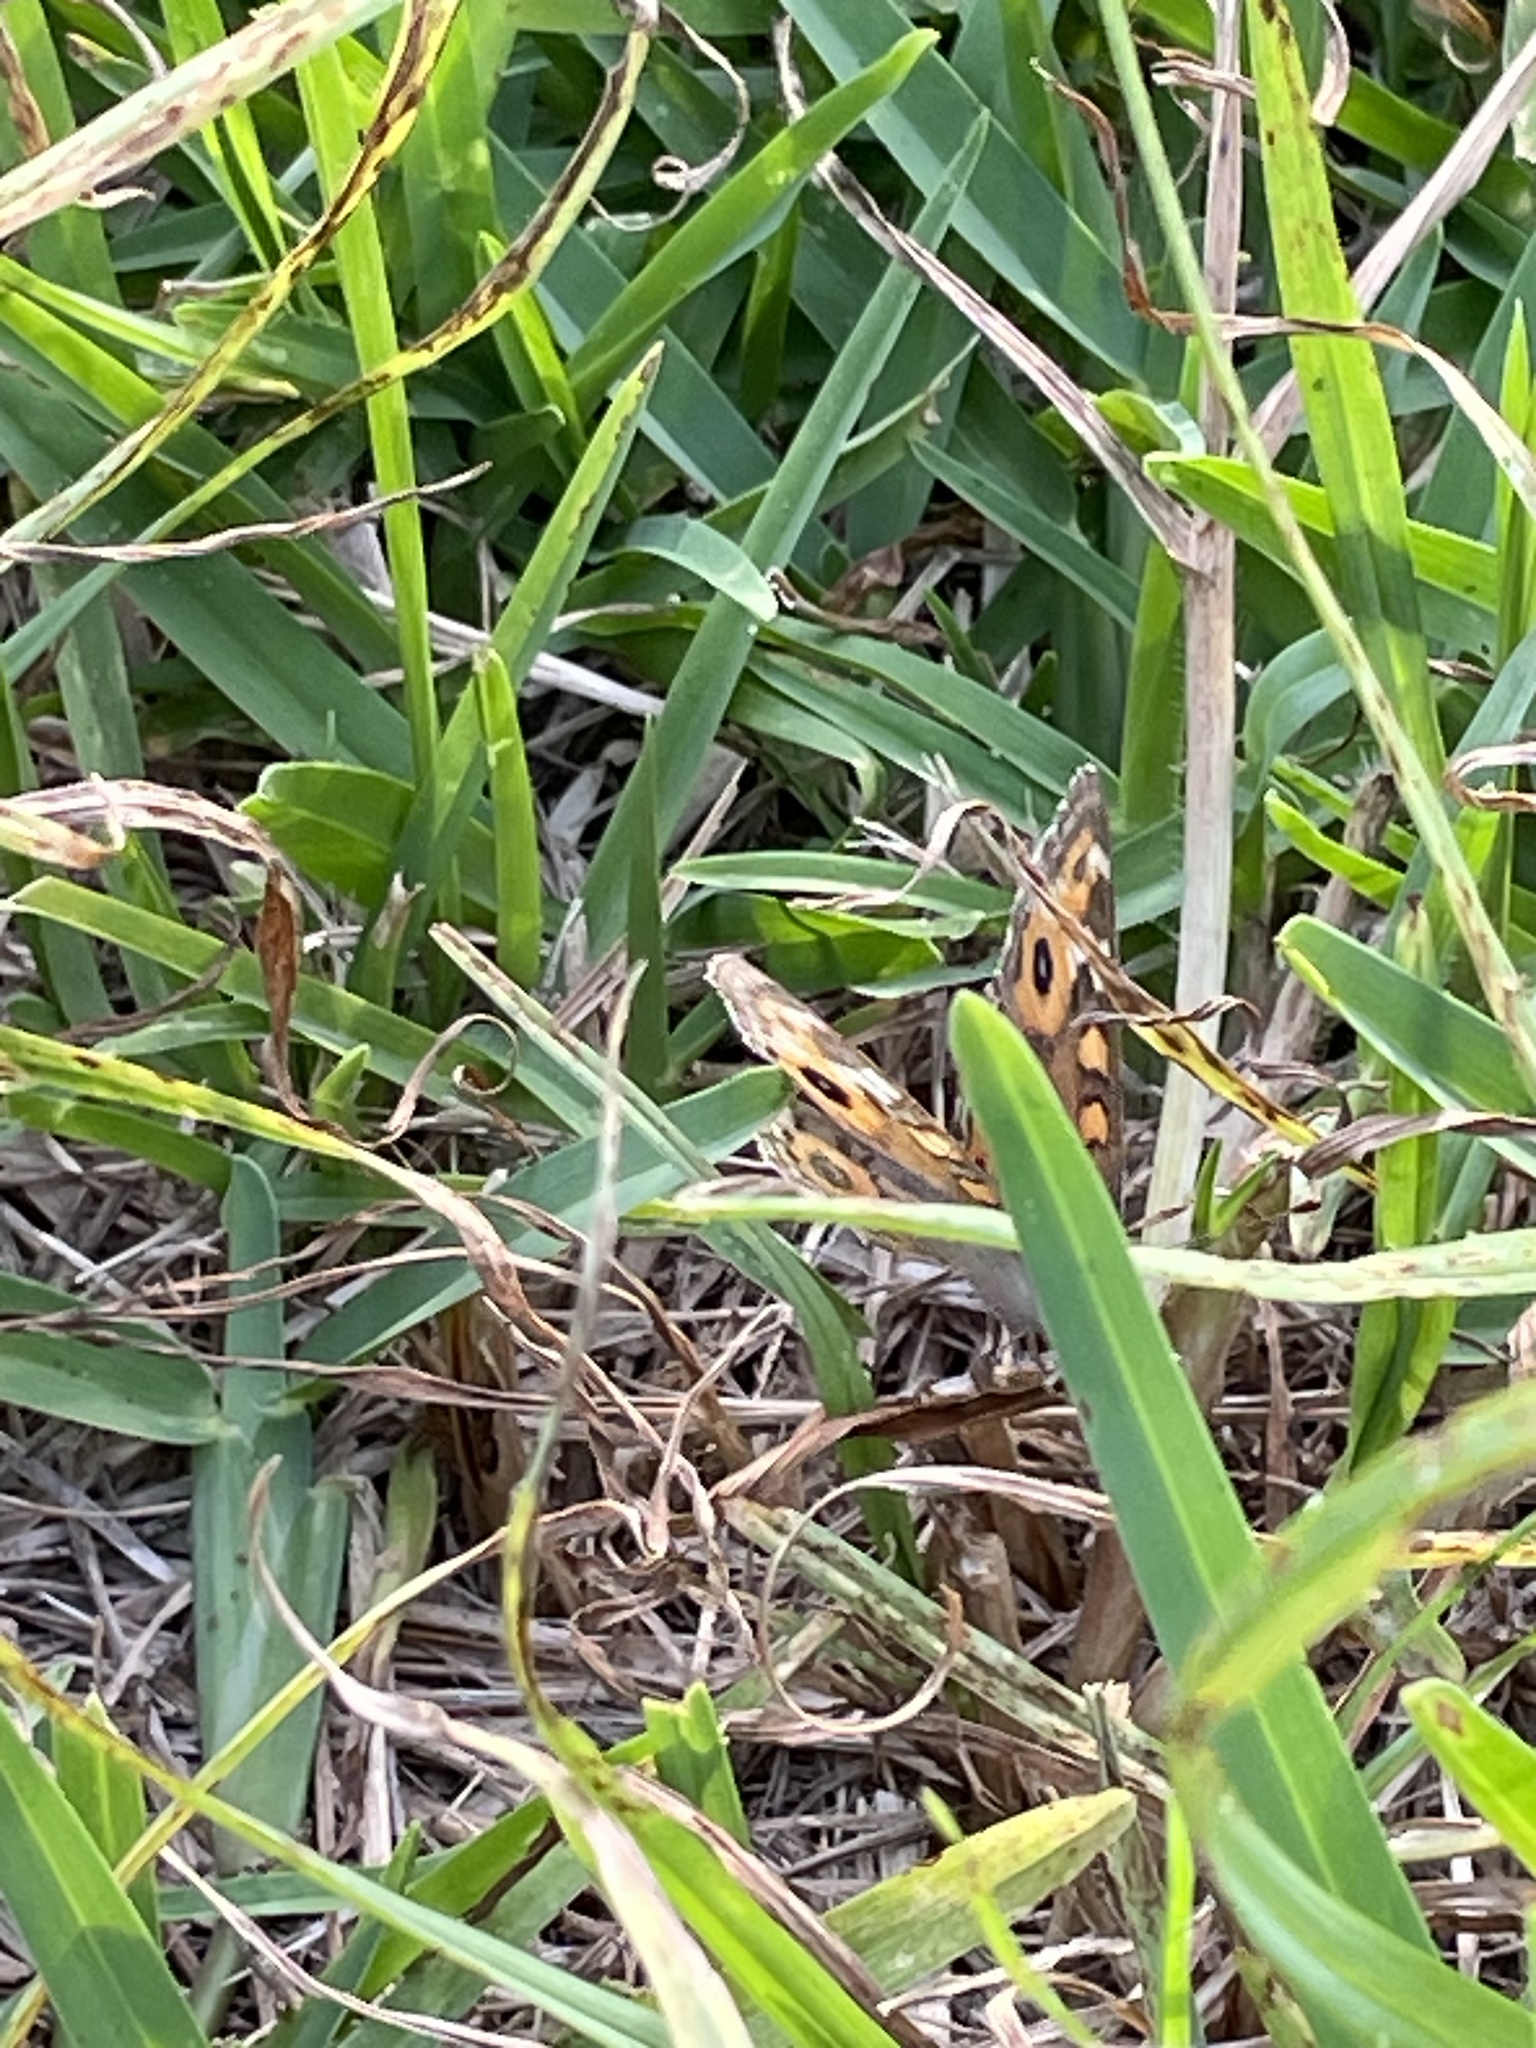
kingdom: Animalia
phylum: Arthropoda
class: Insecta
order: Lepidoptera
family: Nymphalidae
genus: Junonia
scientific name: Junonia villida
